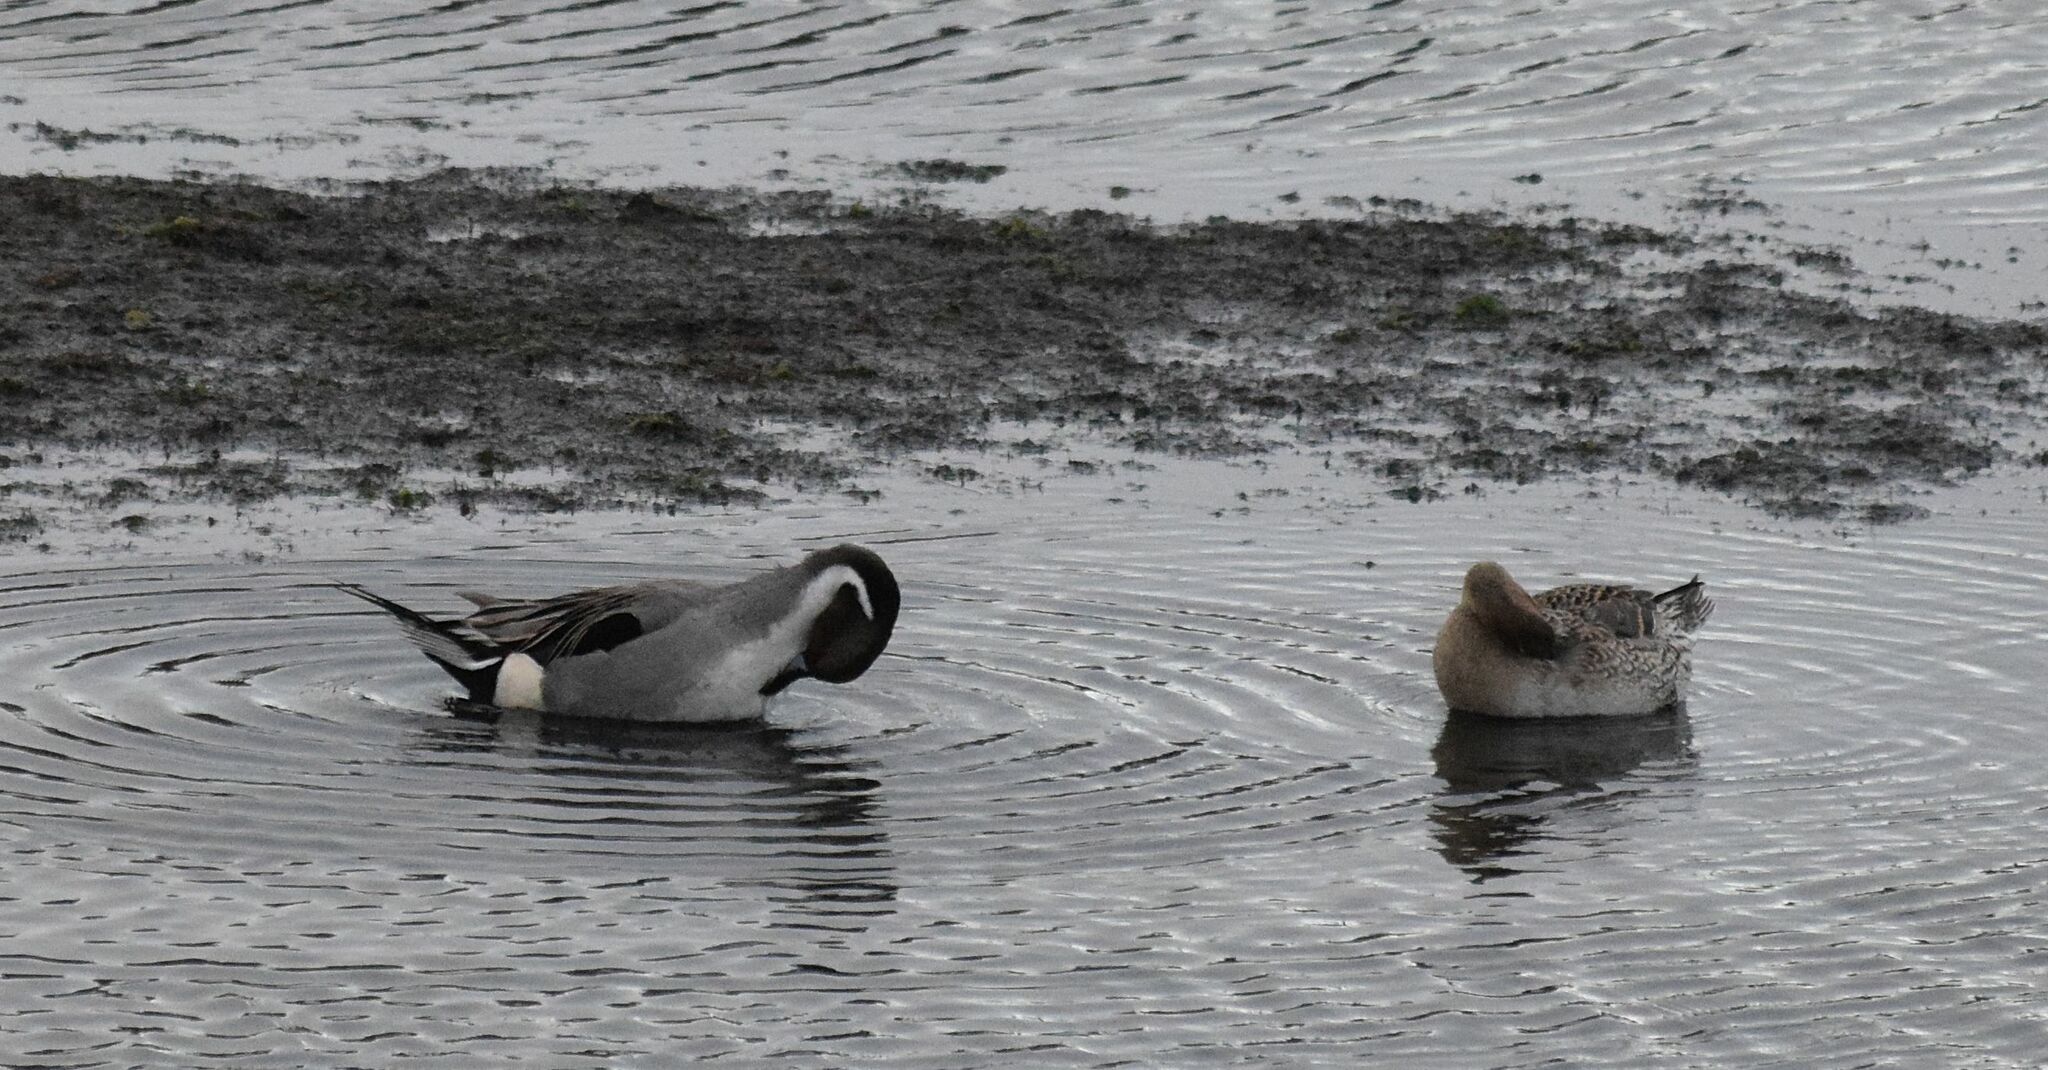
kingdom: Animalia
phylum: Chordata
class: Aves
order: Anseriformes
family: Anatidae
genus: Anas
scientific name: Anas acuta
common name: Northern pintail
